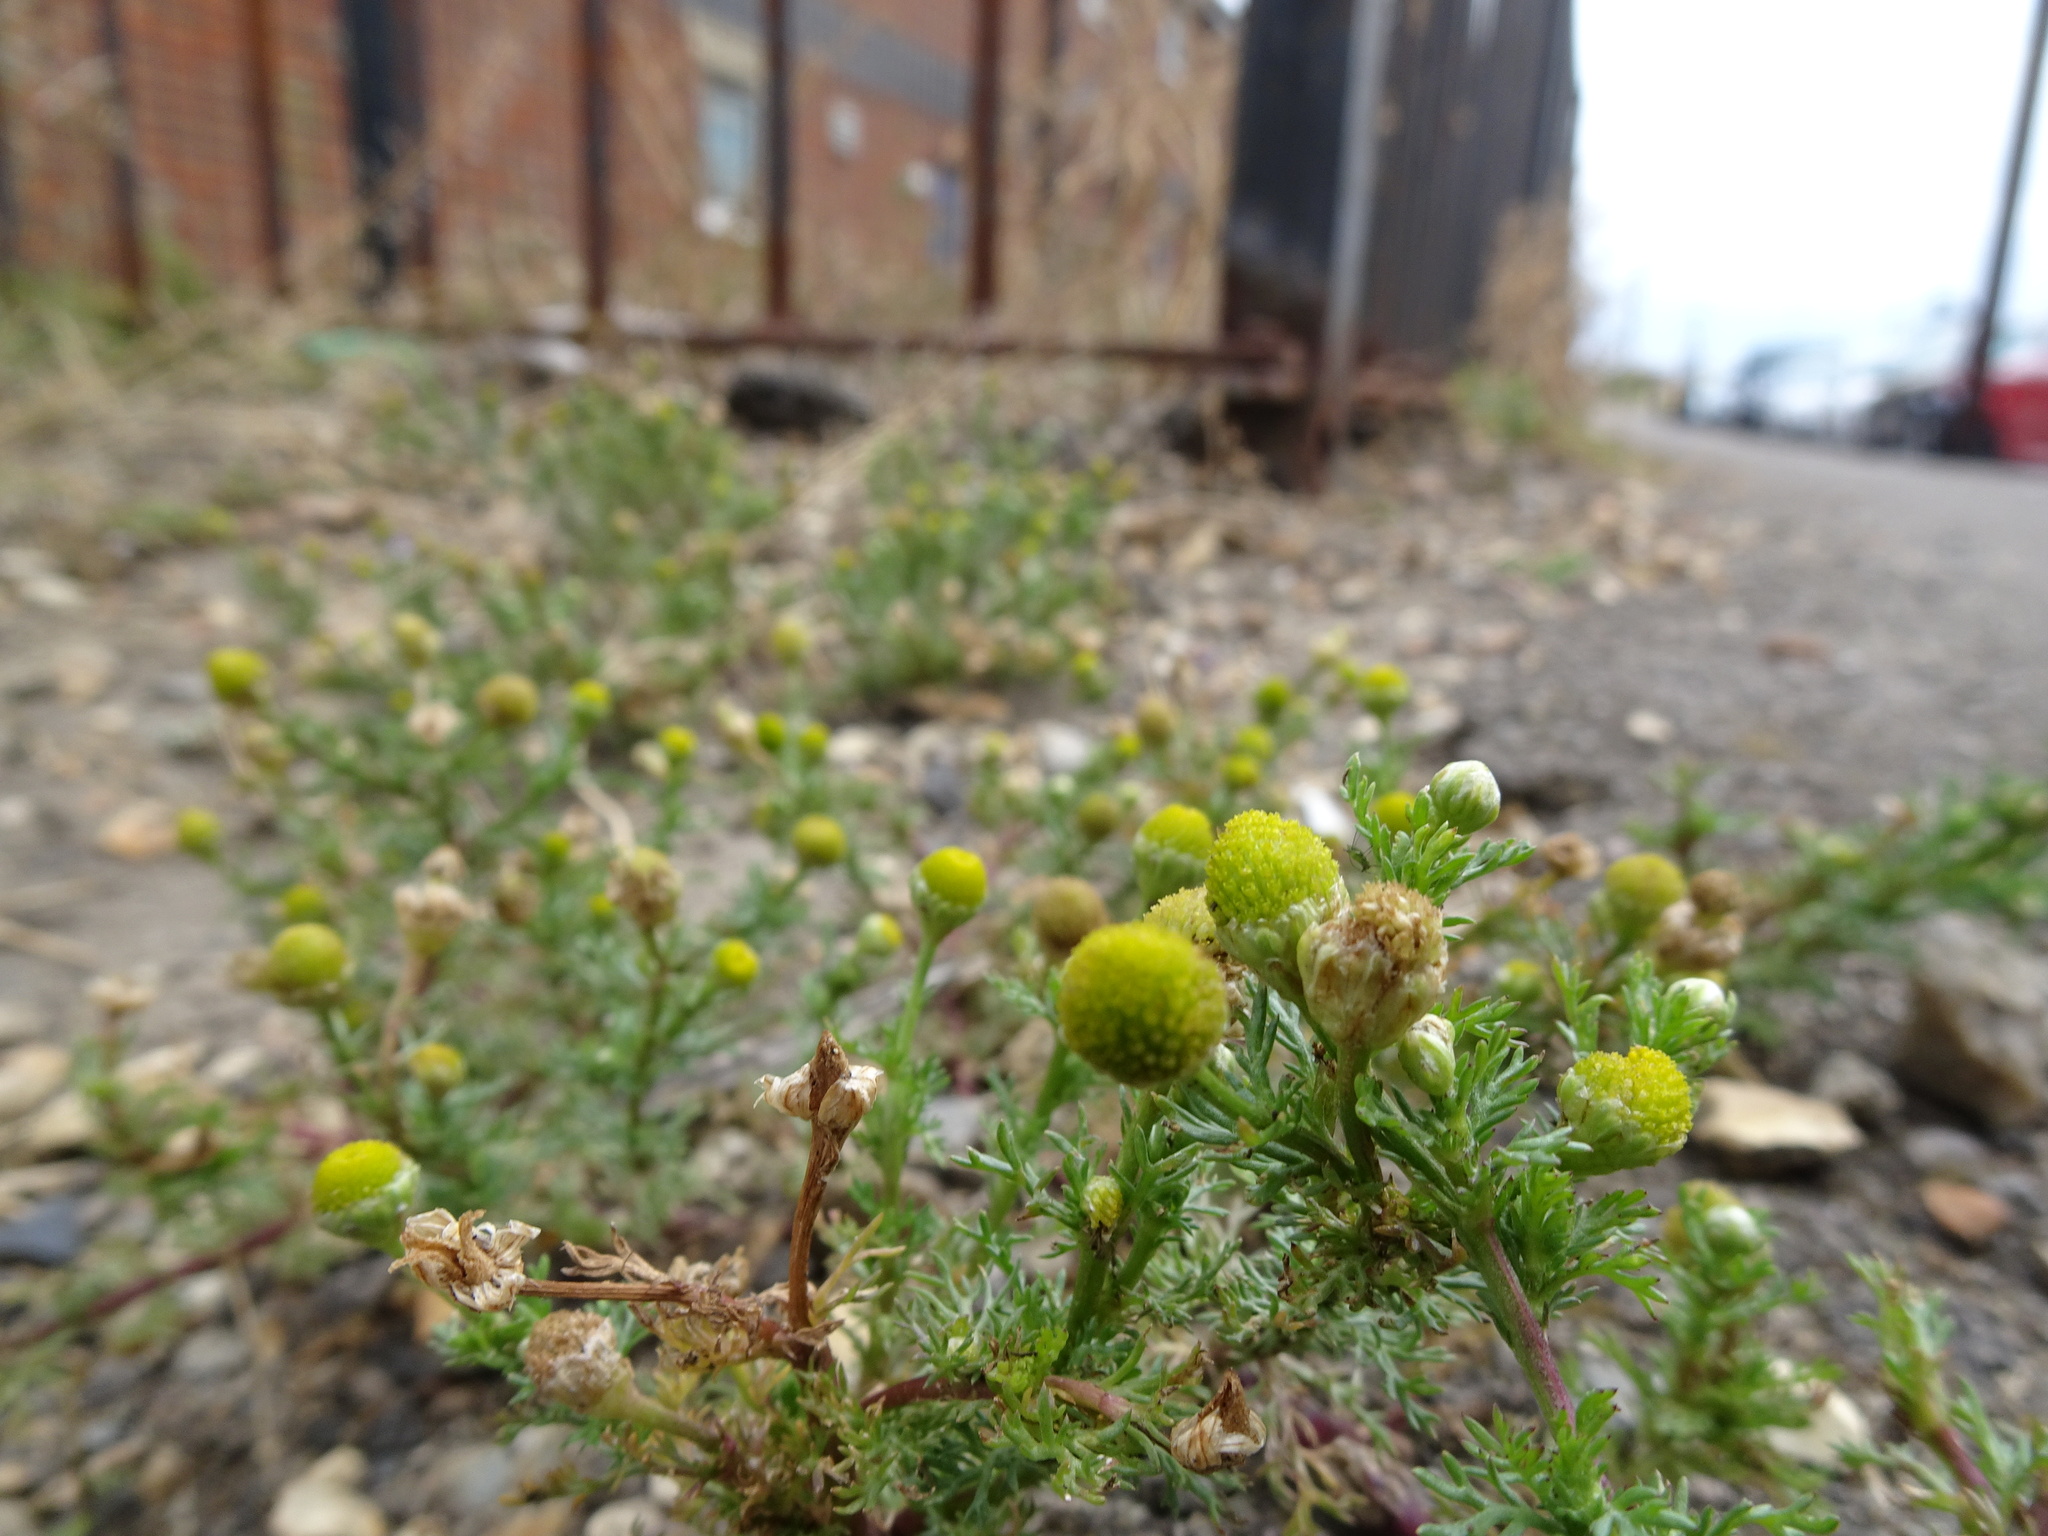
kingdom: Plantae
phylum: Tracheophyta
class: Magnoliopsida
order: Asterales
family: Asteraceae
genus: Matricaria
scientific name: Matricaria discoidea
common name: Disc mayweed
